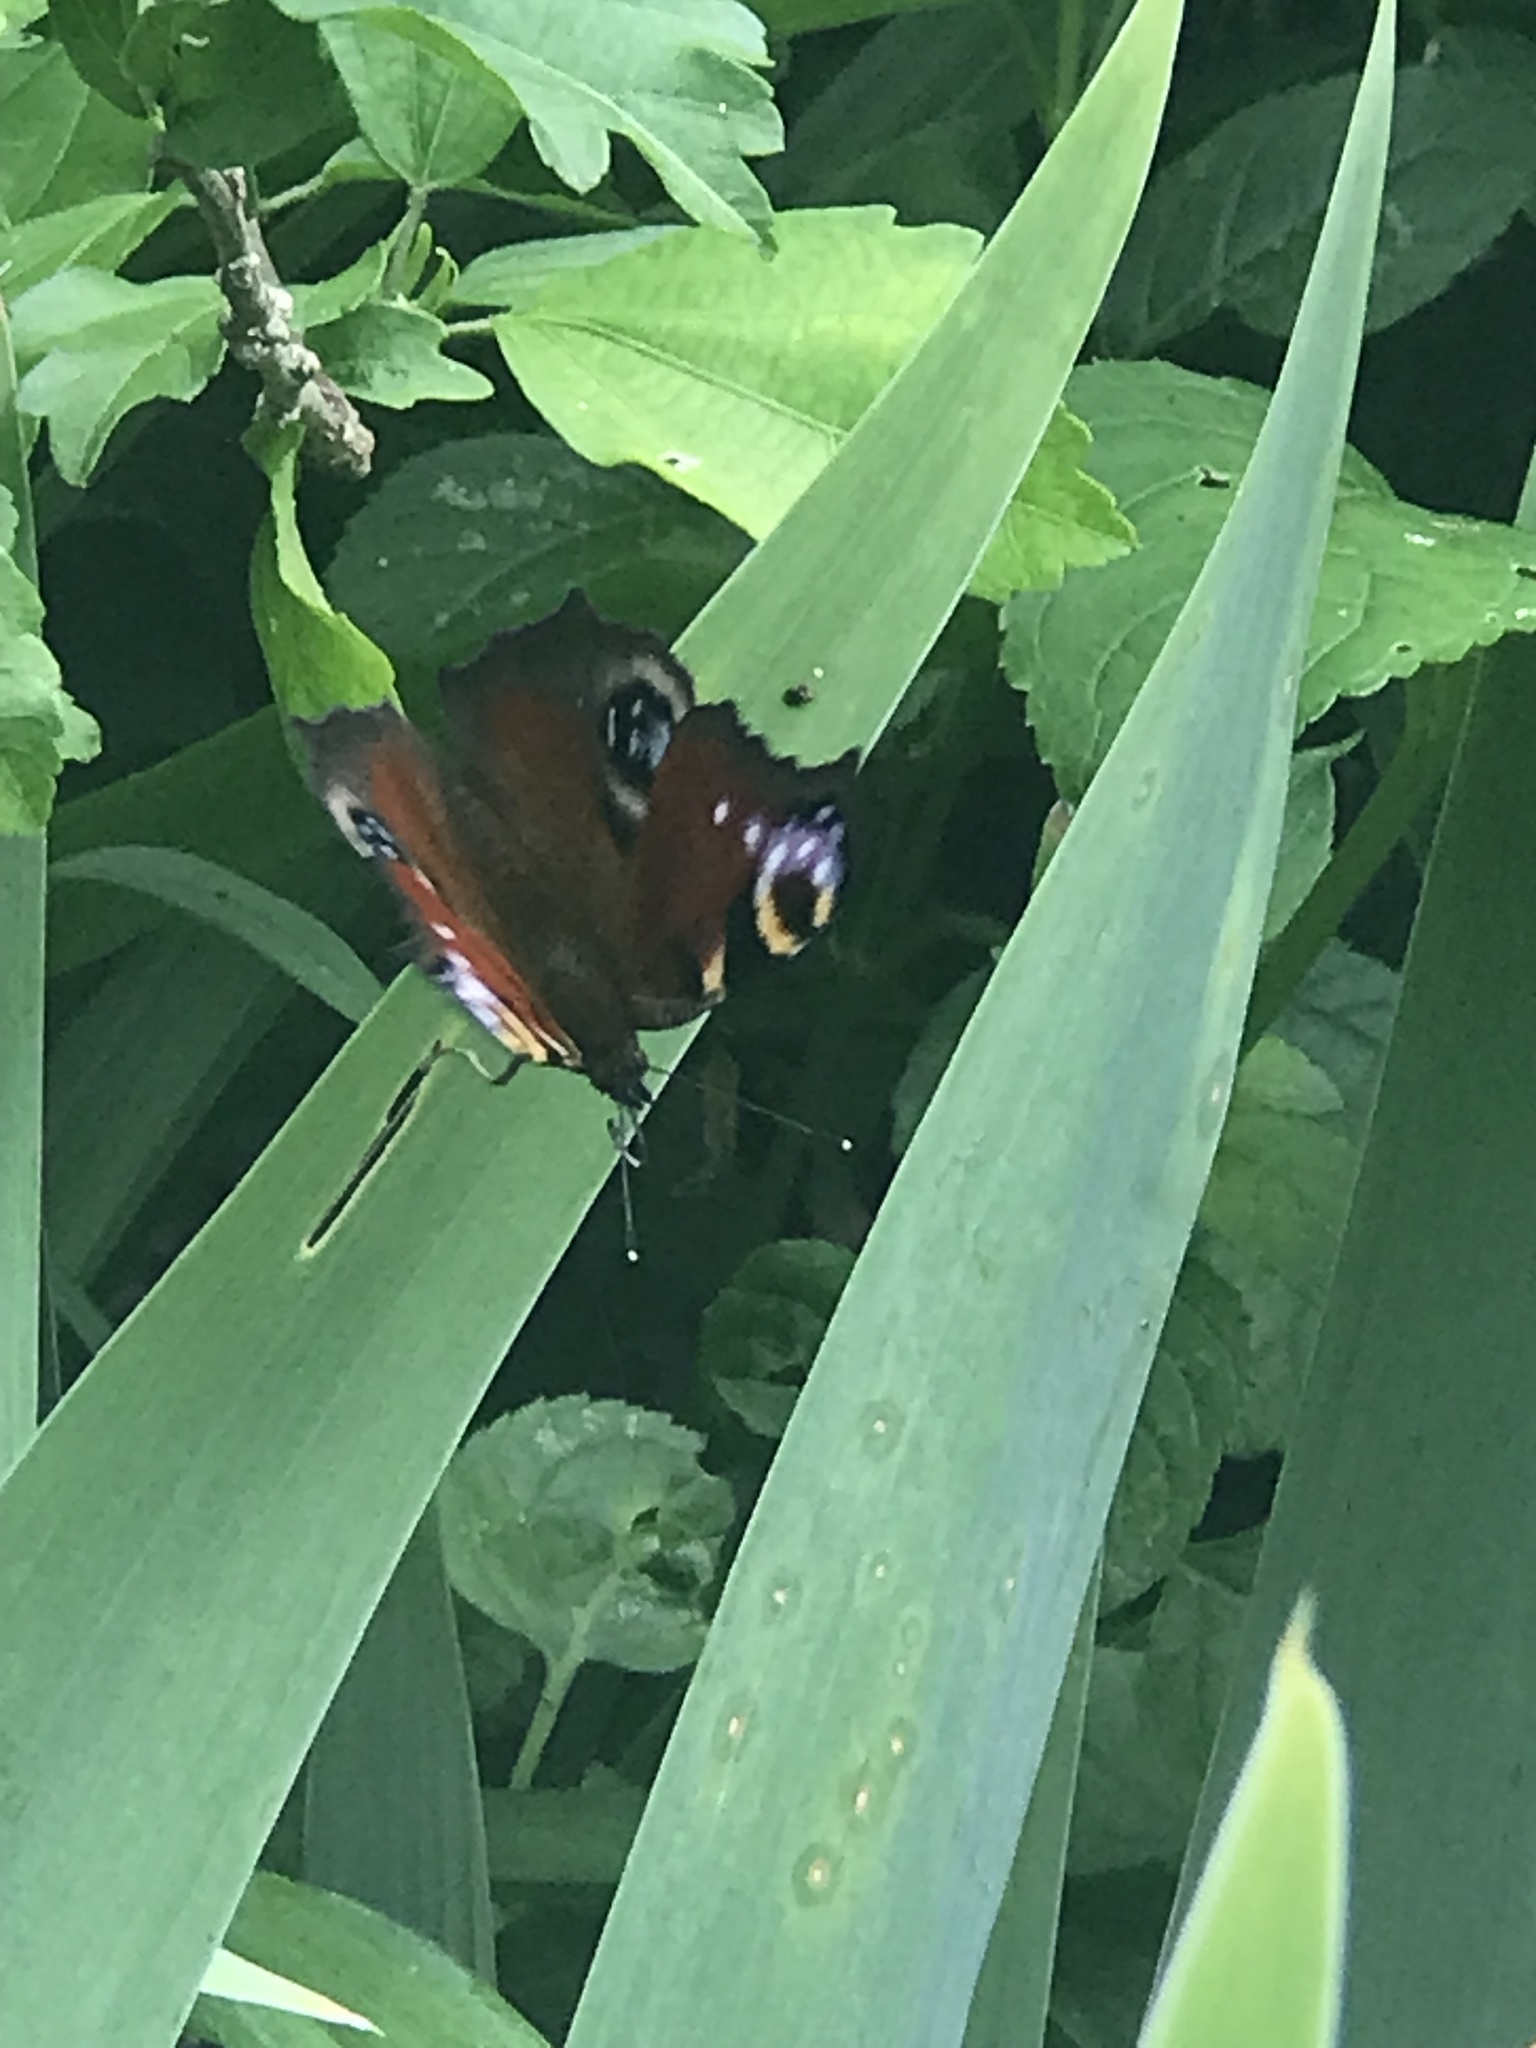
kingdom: Animalia
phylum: Arthropoda
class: Insecta
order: Lepidoptera
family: Nymphalidae
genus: Aglais
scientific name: Aglais io
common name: Peacock
